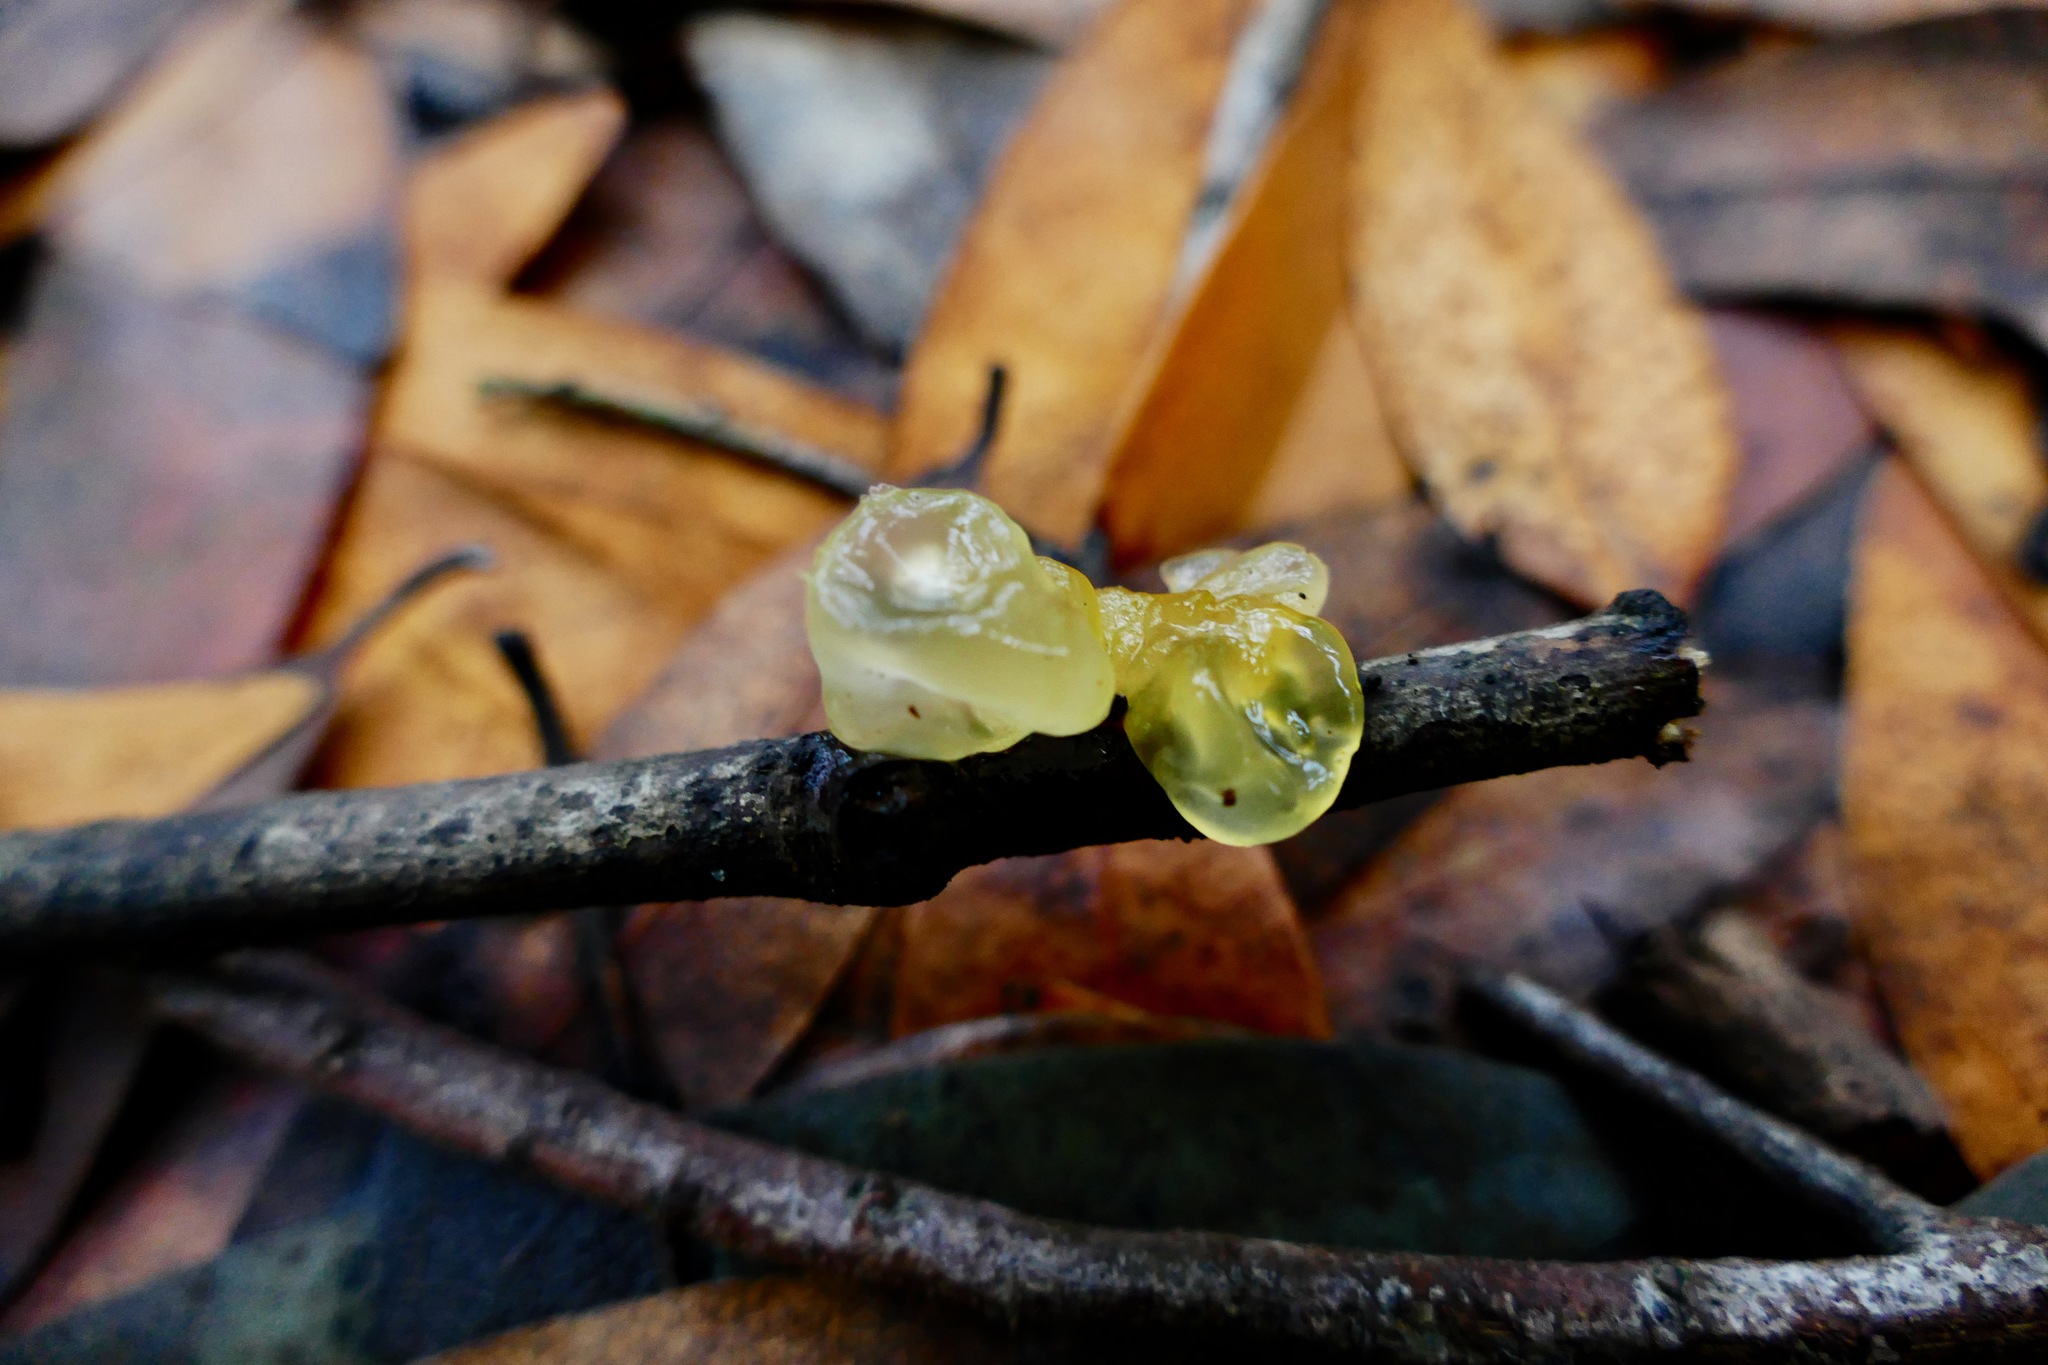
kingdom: Fungi
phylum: Basidiomycota
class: Tremellomycetes
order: Tremellales
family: Tremellaceae
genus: Tremella
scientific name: Tremella mesenterica
